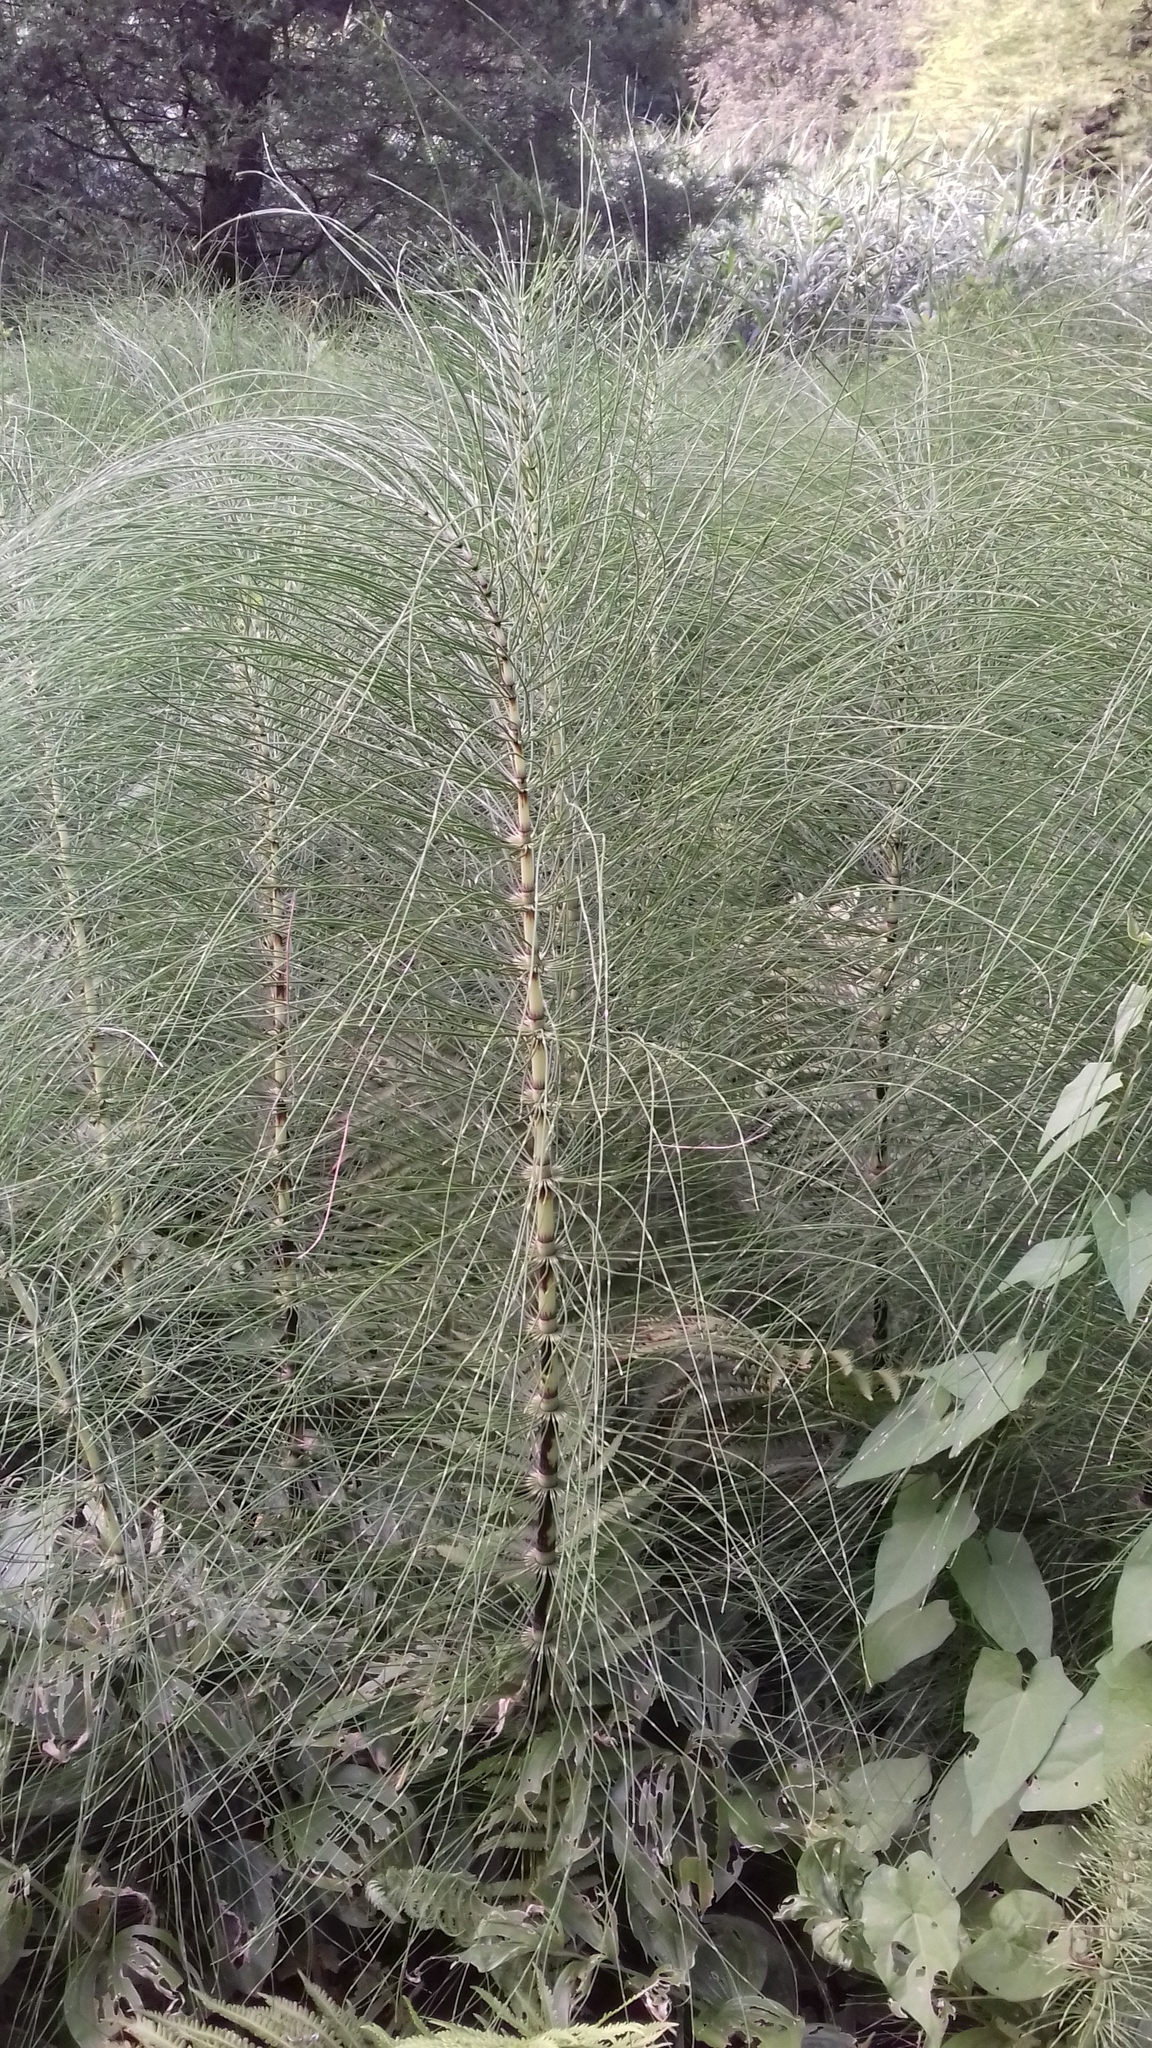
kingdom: Plantae
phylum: Tracheophyta
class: Polypodiopsida
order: Equisetales
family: Equisetaceae
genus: Equisetum
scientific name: Equisetum telmateia
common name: Great horsetail
